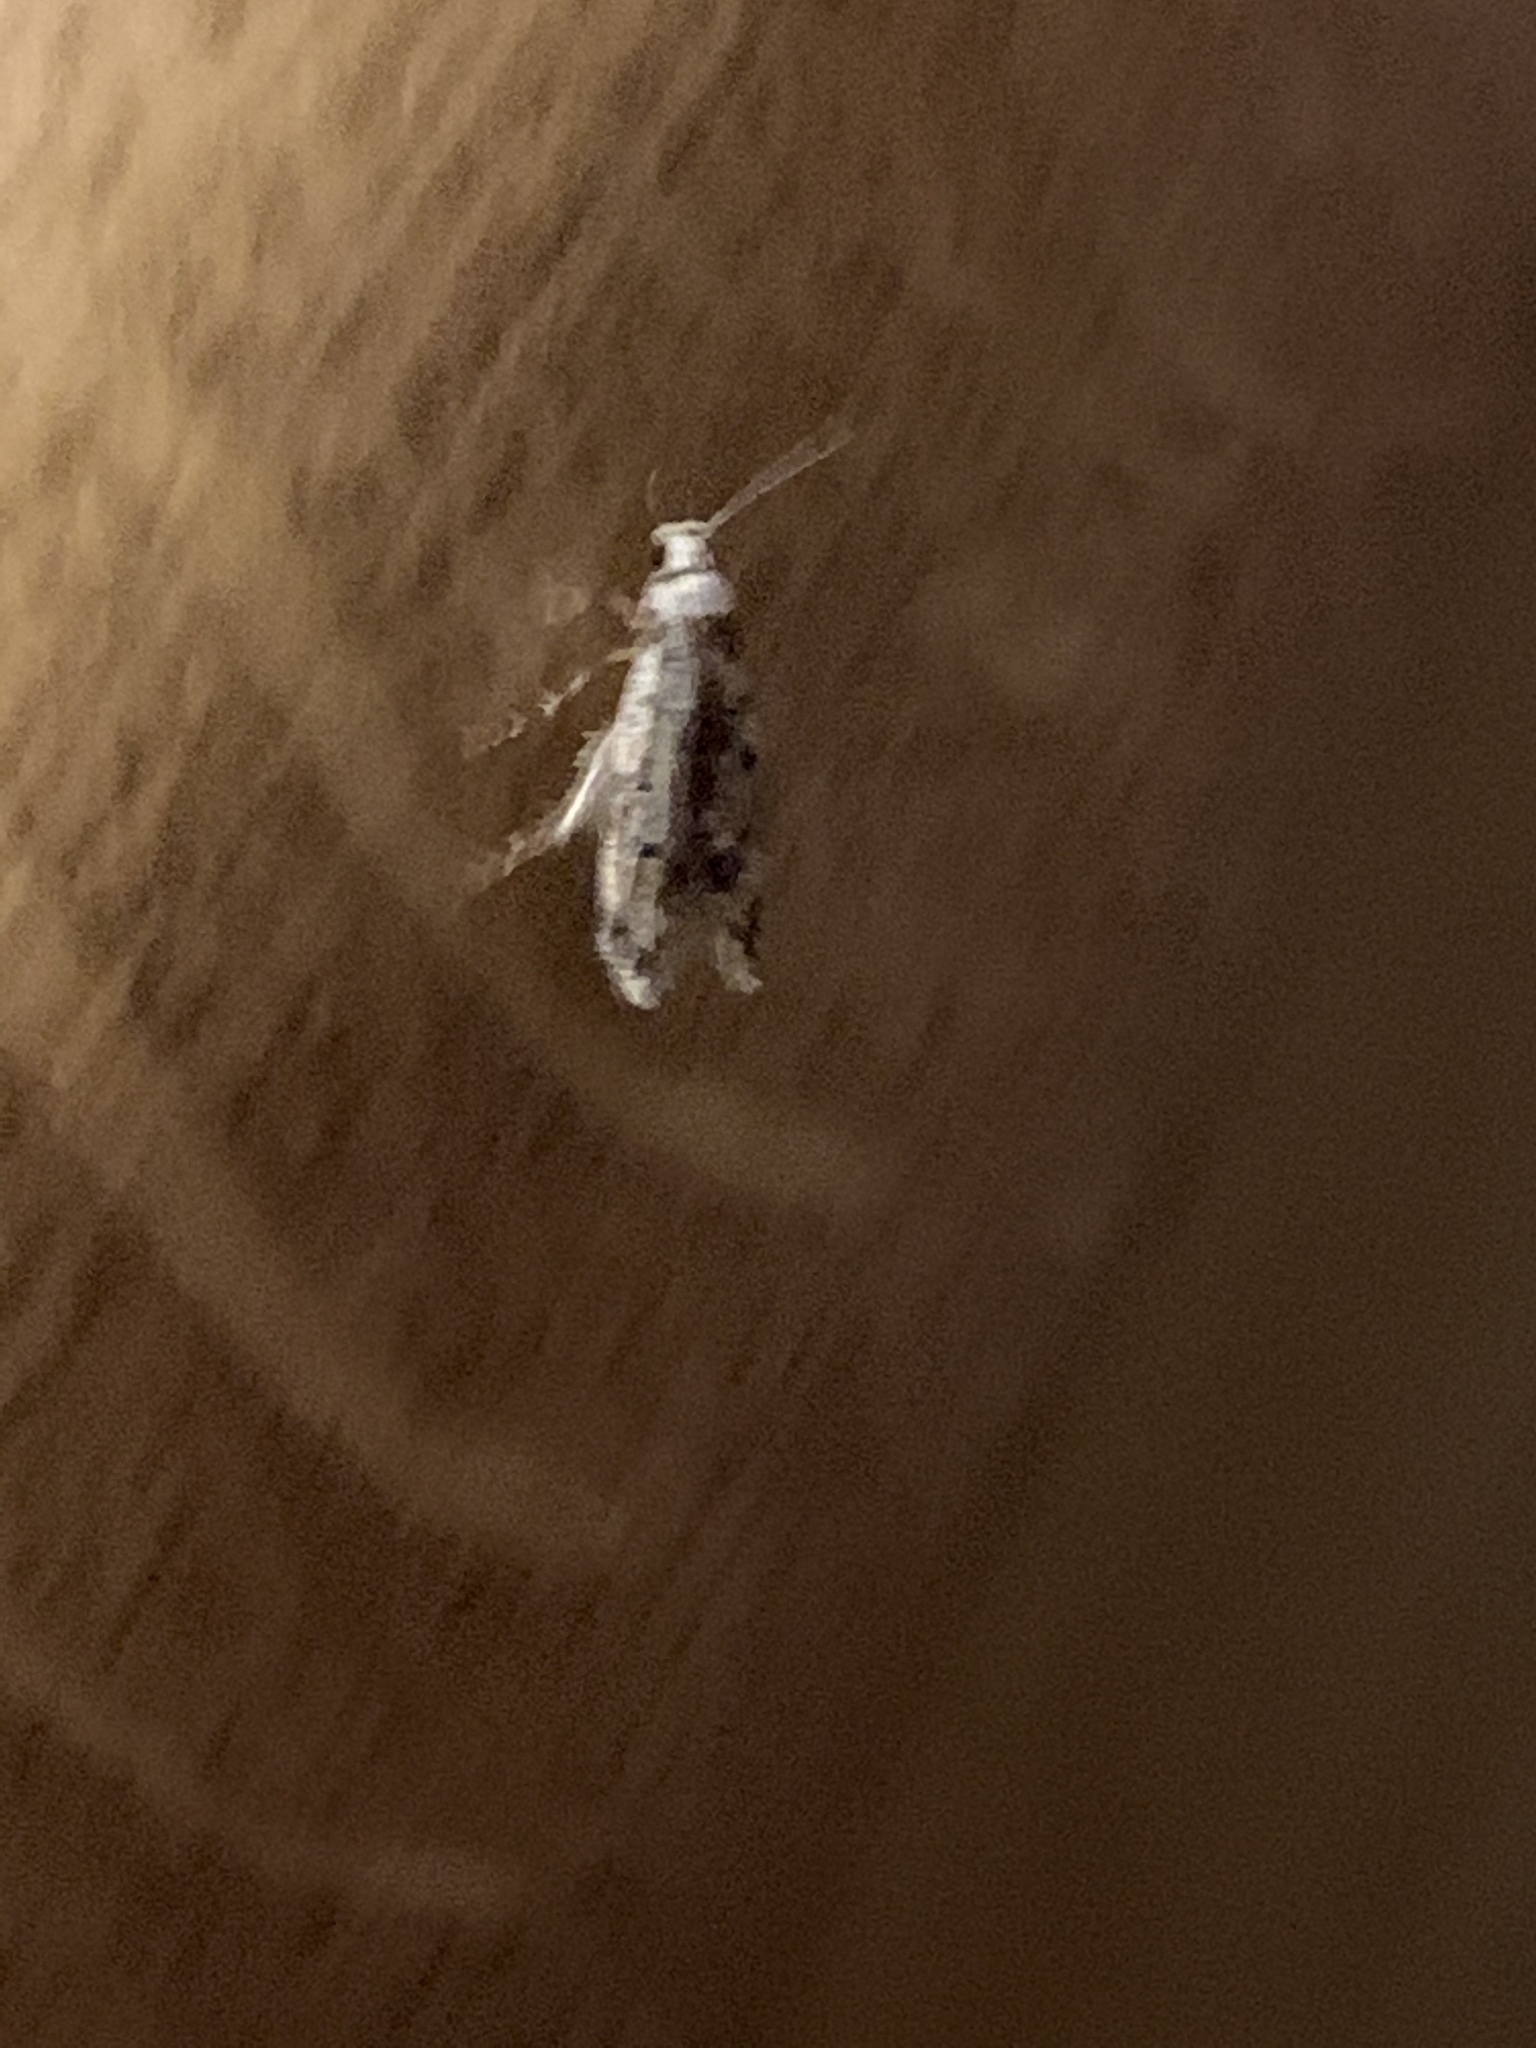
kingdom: Animalia
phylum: Arthropoda
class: Insecta
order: Lepidoptera
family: Oecophoridae
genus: Endrosis
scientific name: Endrosis sarcitrella
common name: White-shouldered house moth
